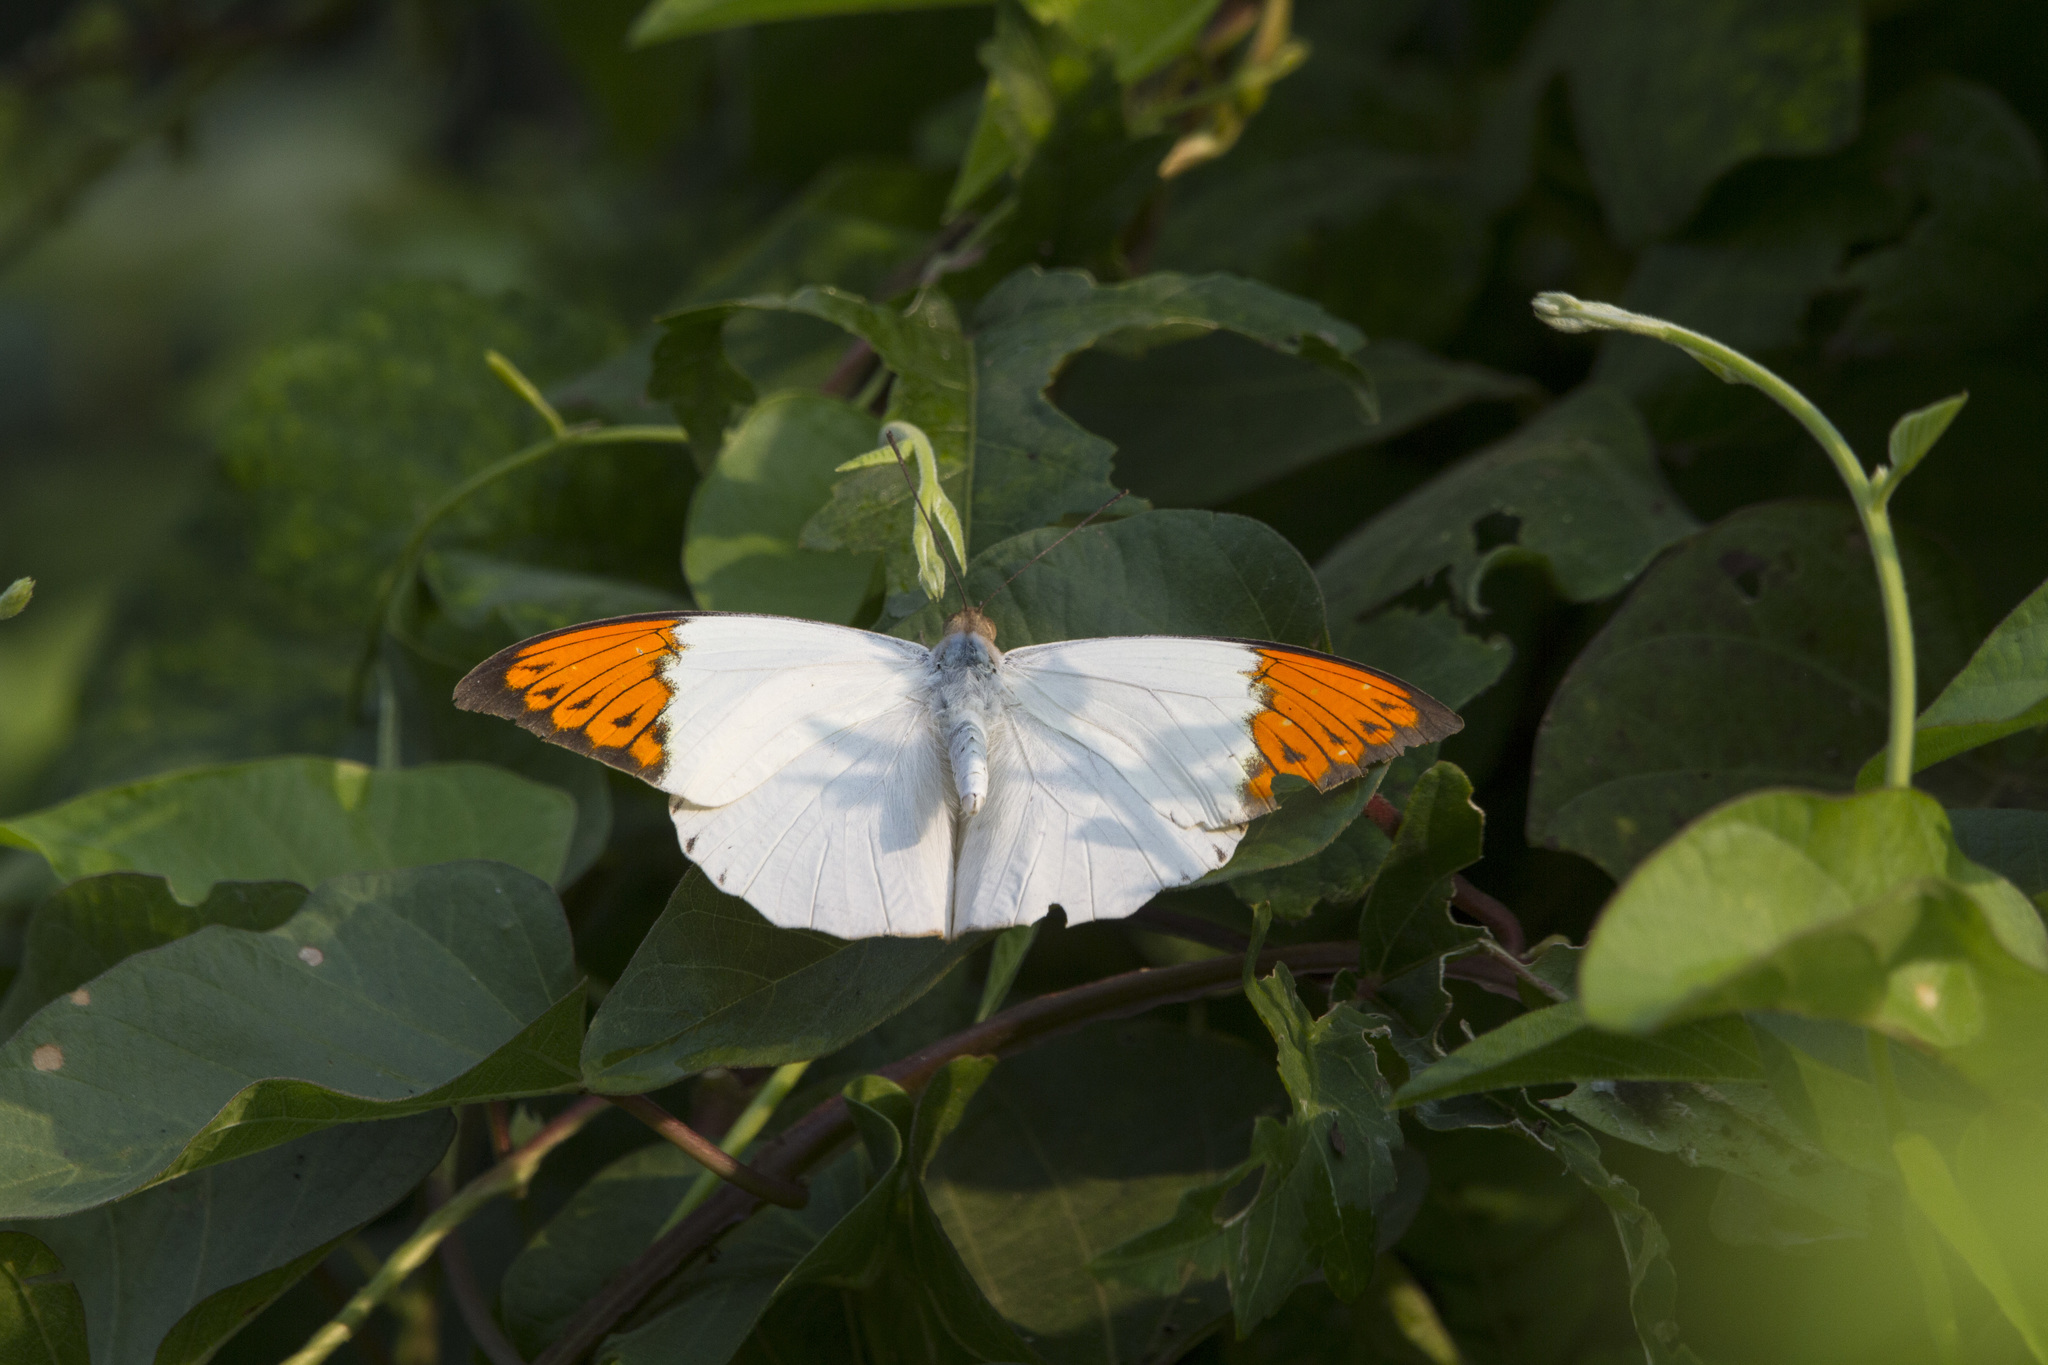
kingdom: Animalia
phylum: Arthropoda
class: Insecta
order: Lepidoptera
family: Pieridae
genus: Hebomoia
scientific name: Hebomoia glaucippe
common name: Great orange tip
